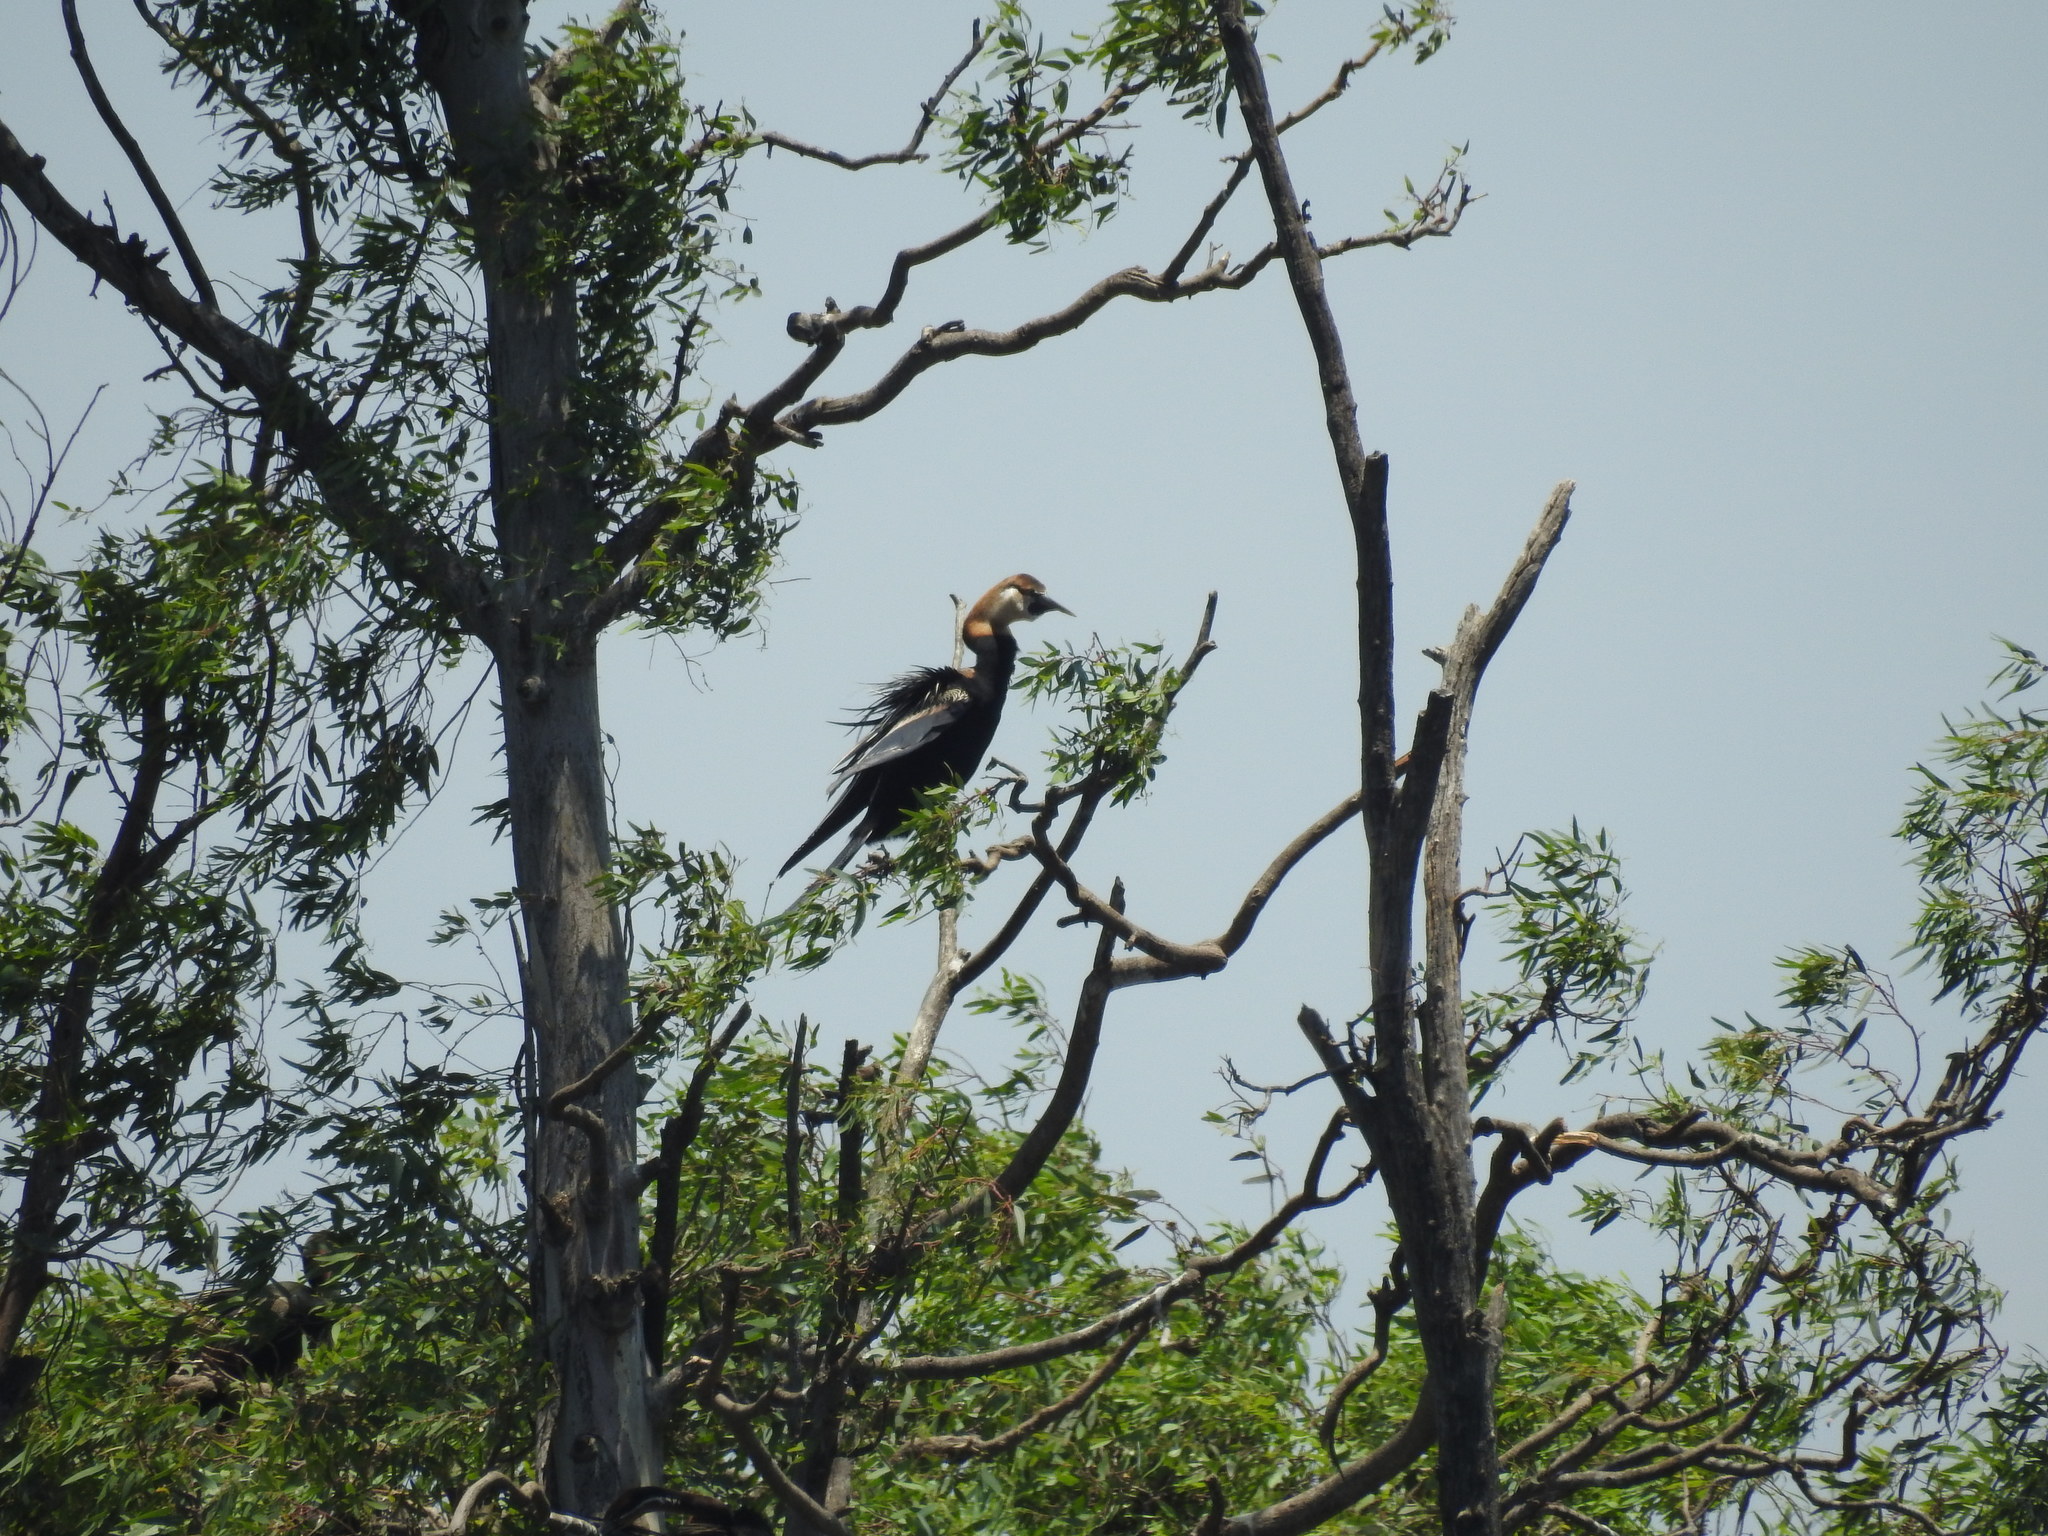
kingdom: Animalia
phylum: Chordata
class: Aves
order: Suliformes
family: Anhingidae
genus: Anhinga
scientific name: Anhinga rufa
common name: African darter
